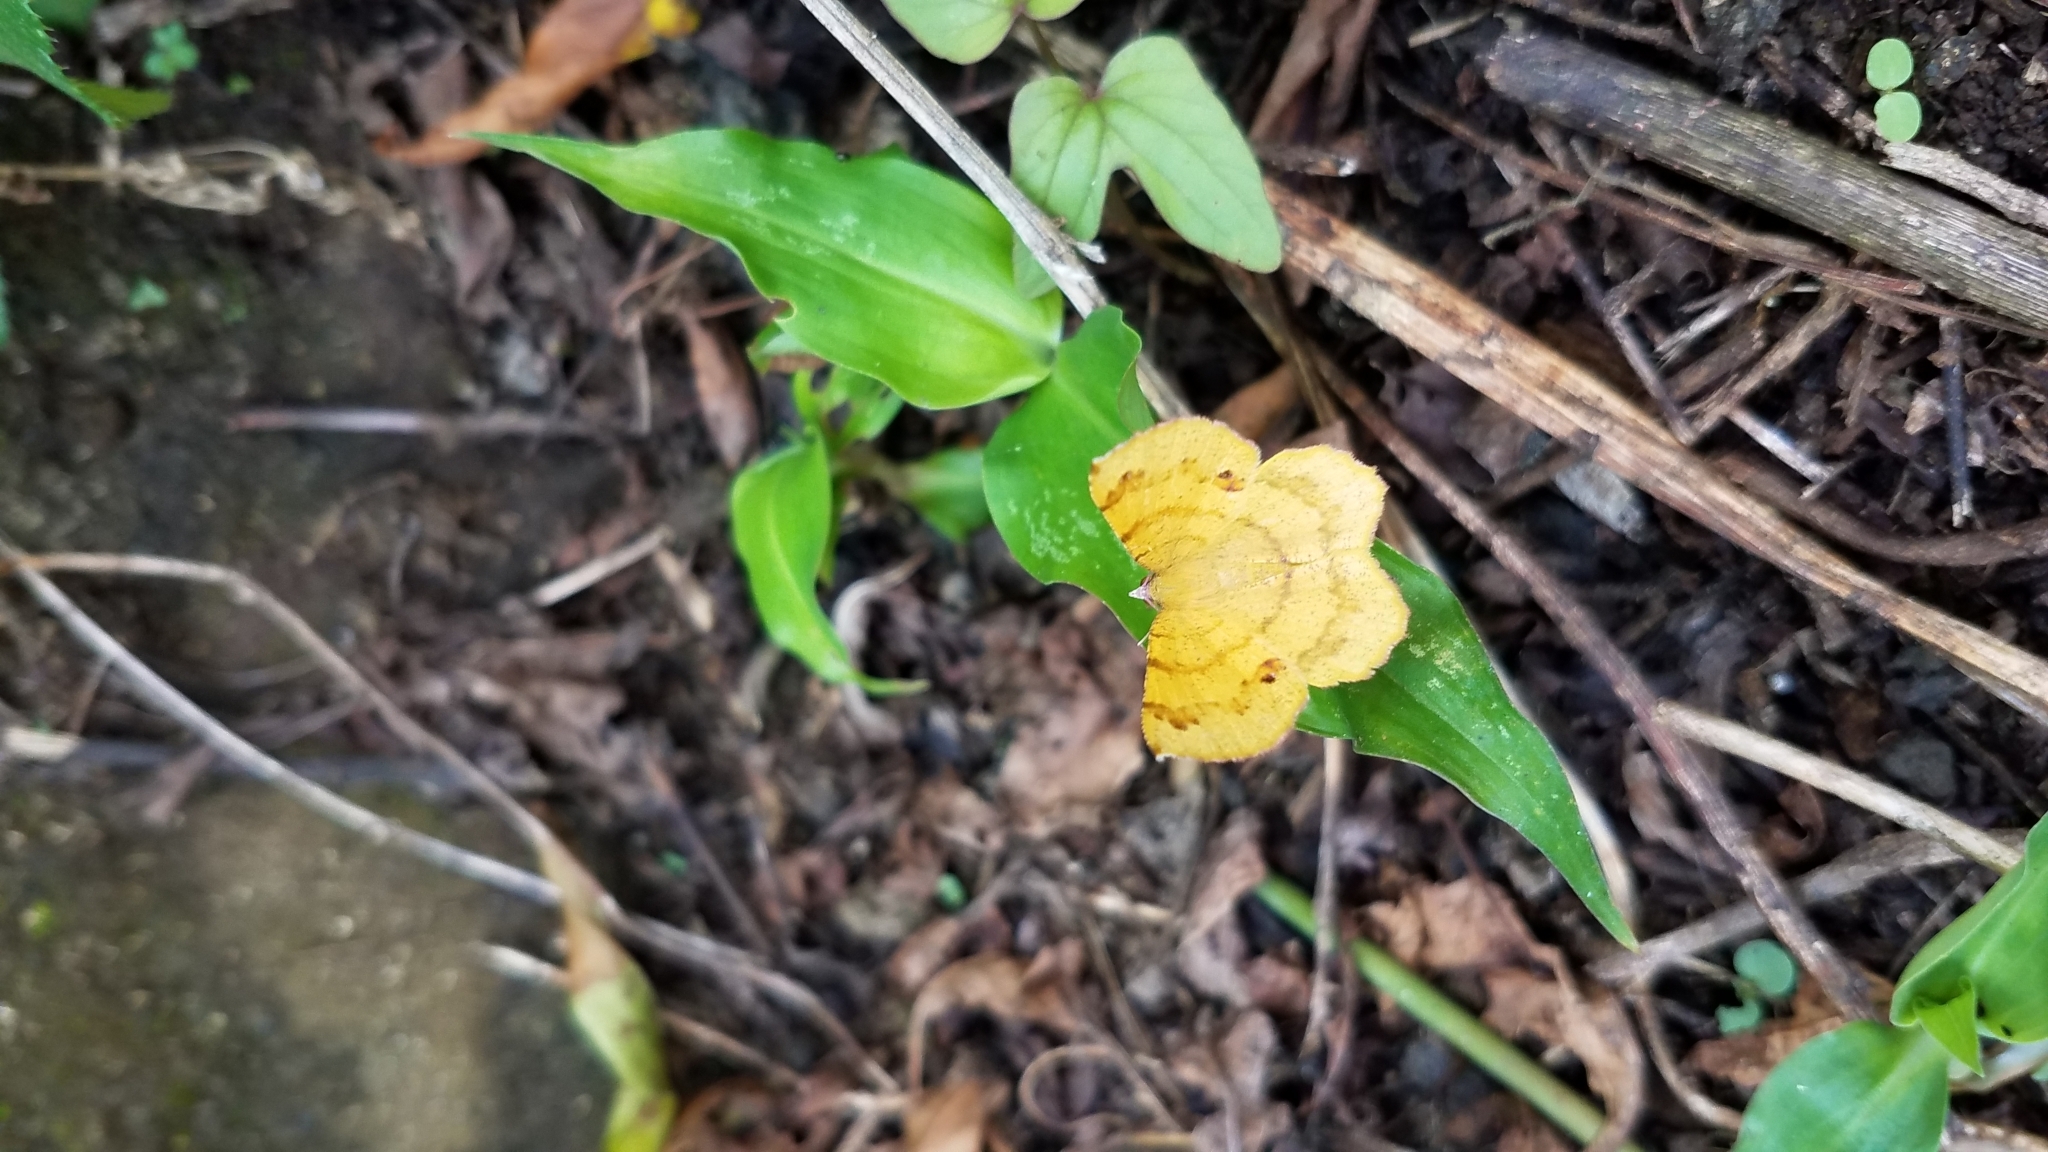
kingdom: Animalia
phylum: Arthropoda
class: Insecta
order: Lepidoptera
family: Geometridae
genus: Erastria
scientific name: Erastria decrepitaria
